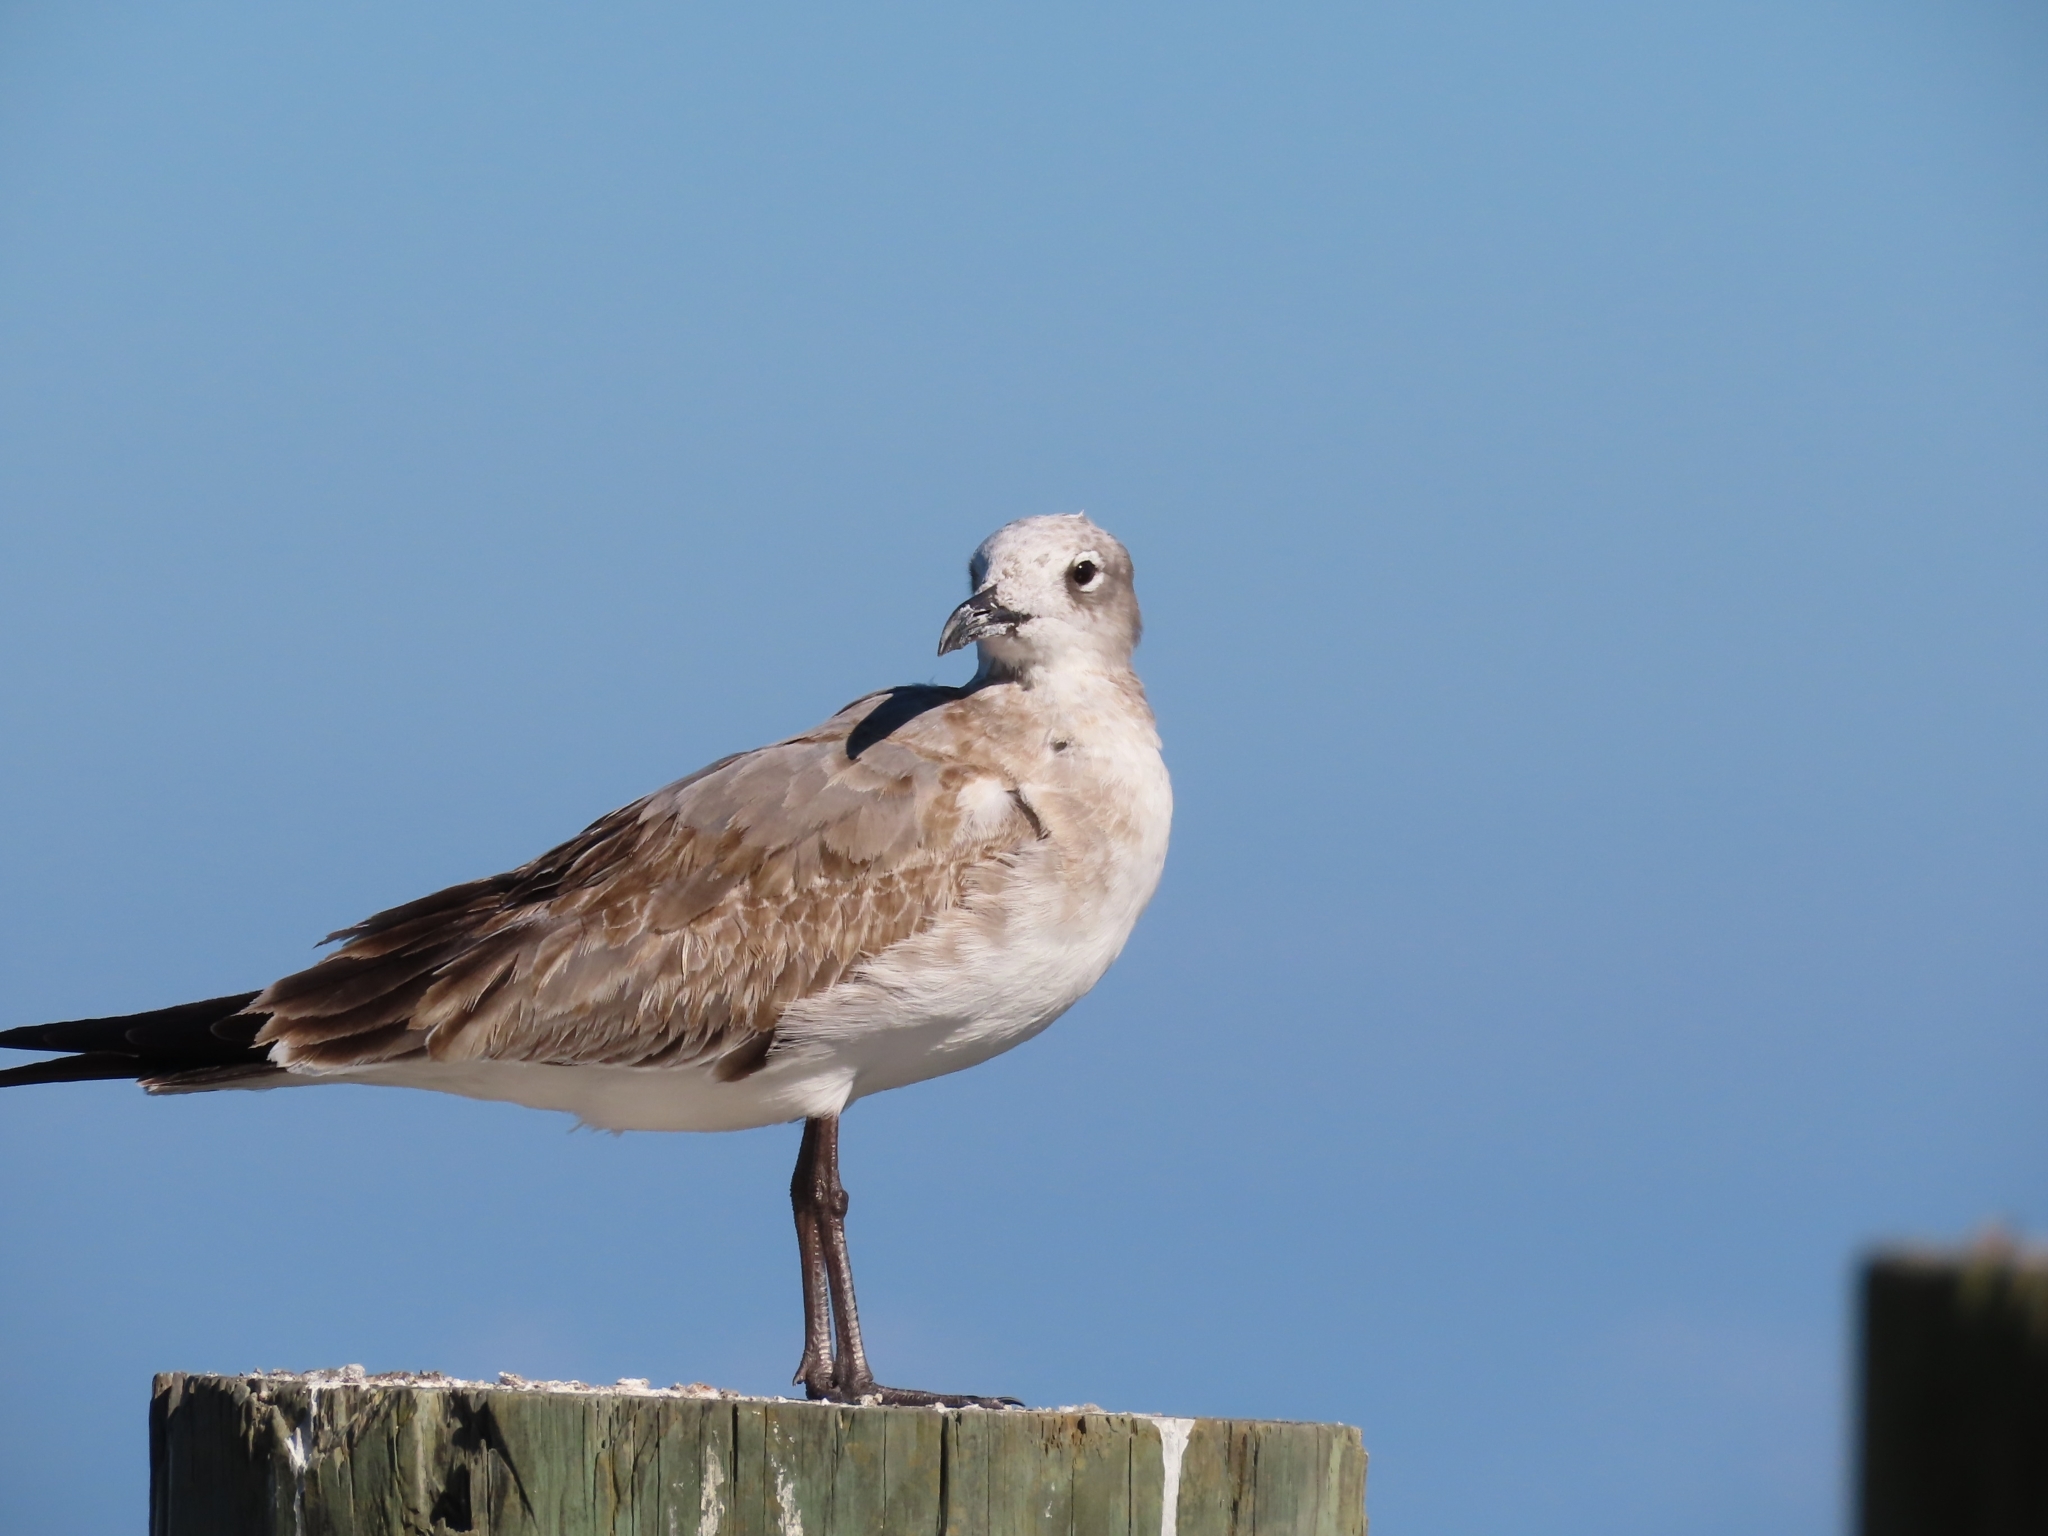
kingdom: Animalia
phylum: Chordata
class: Aves
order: Charadriiformes
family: Laridae
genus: Leucophaeus
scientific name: Leucophaeus atricilla
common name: Laughing gull
